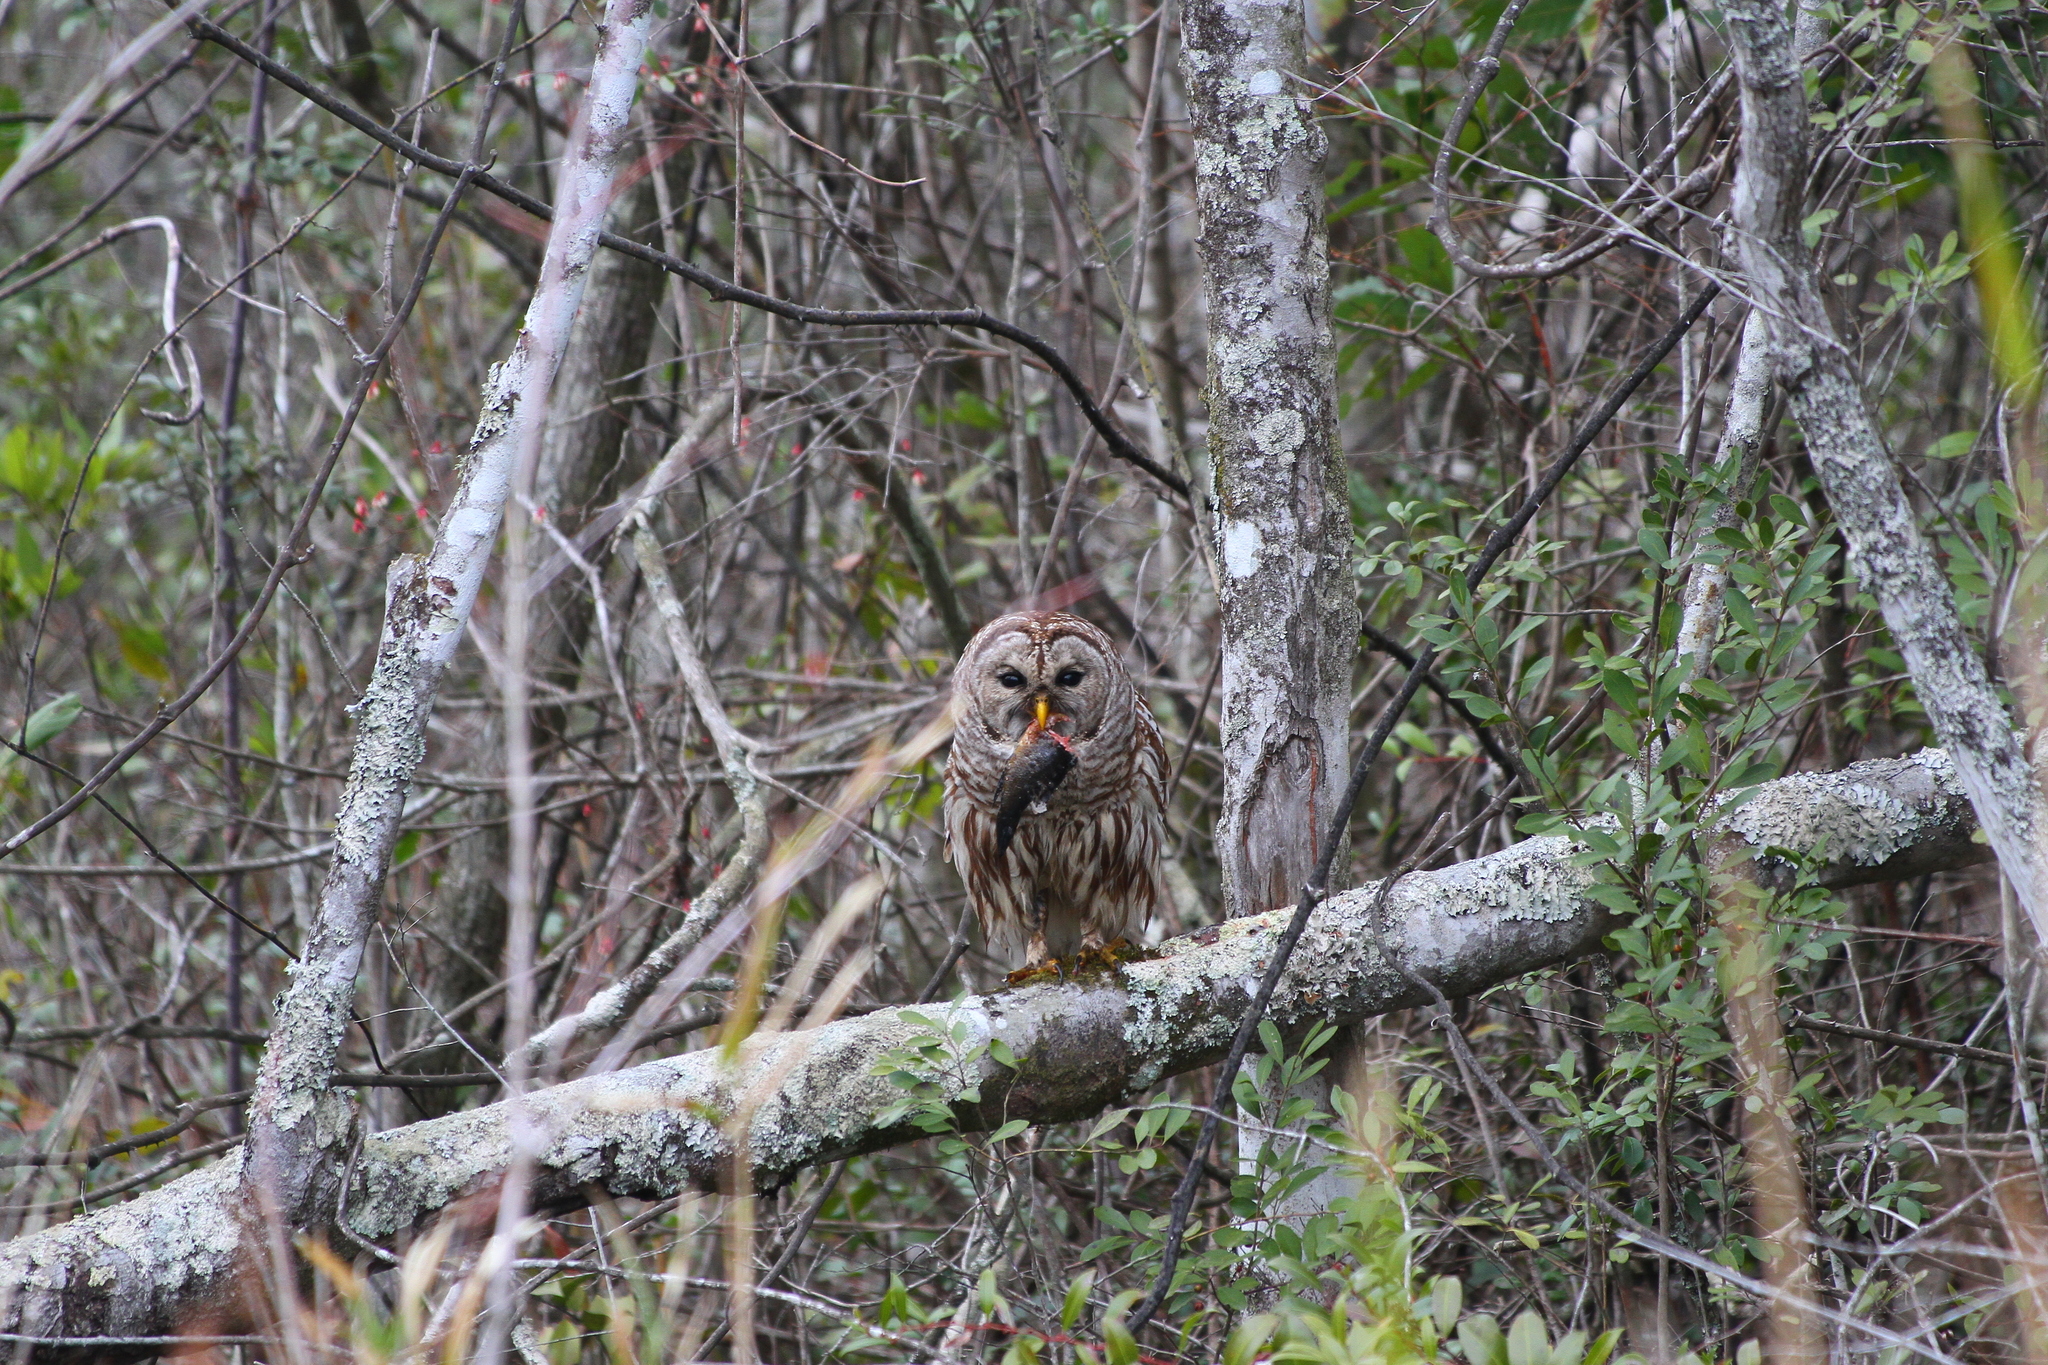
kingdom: Animalia
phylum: Chordata
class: Aves
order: Strigiformes
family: Strigidae
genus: Strix
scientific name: Strix varia
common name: Barred owl
